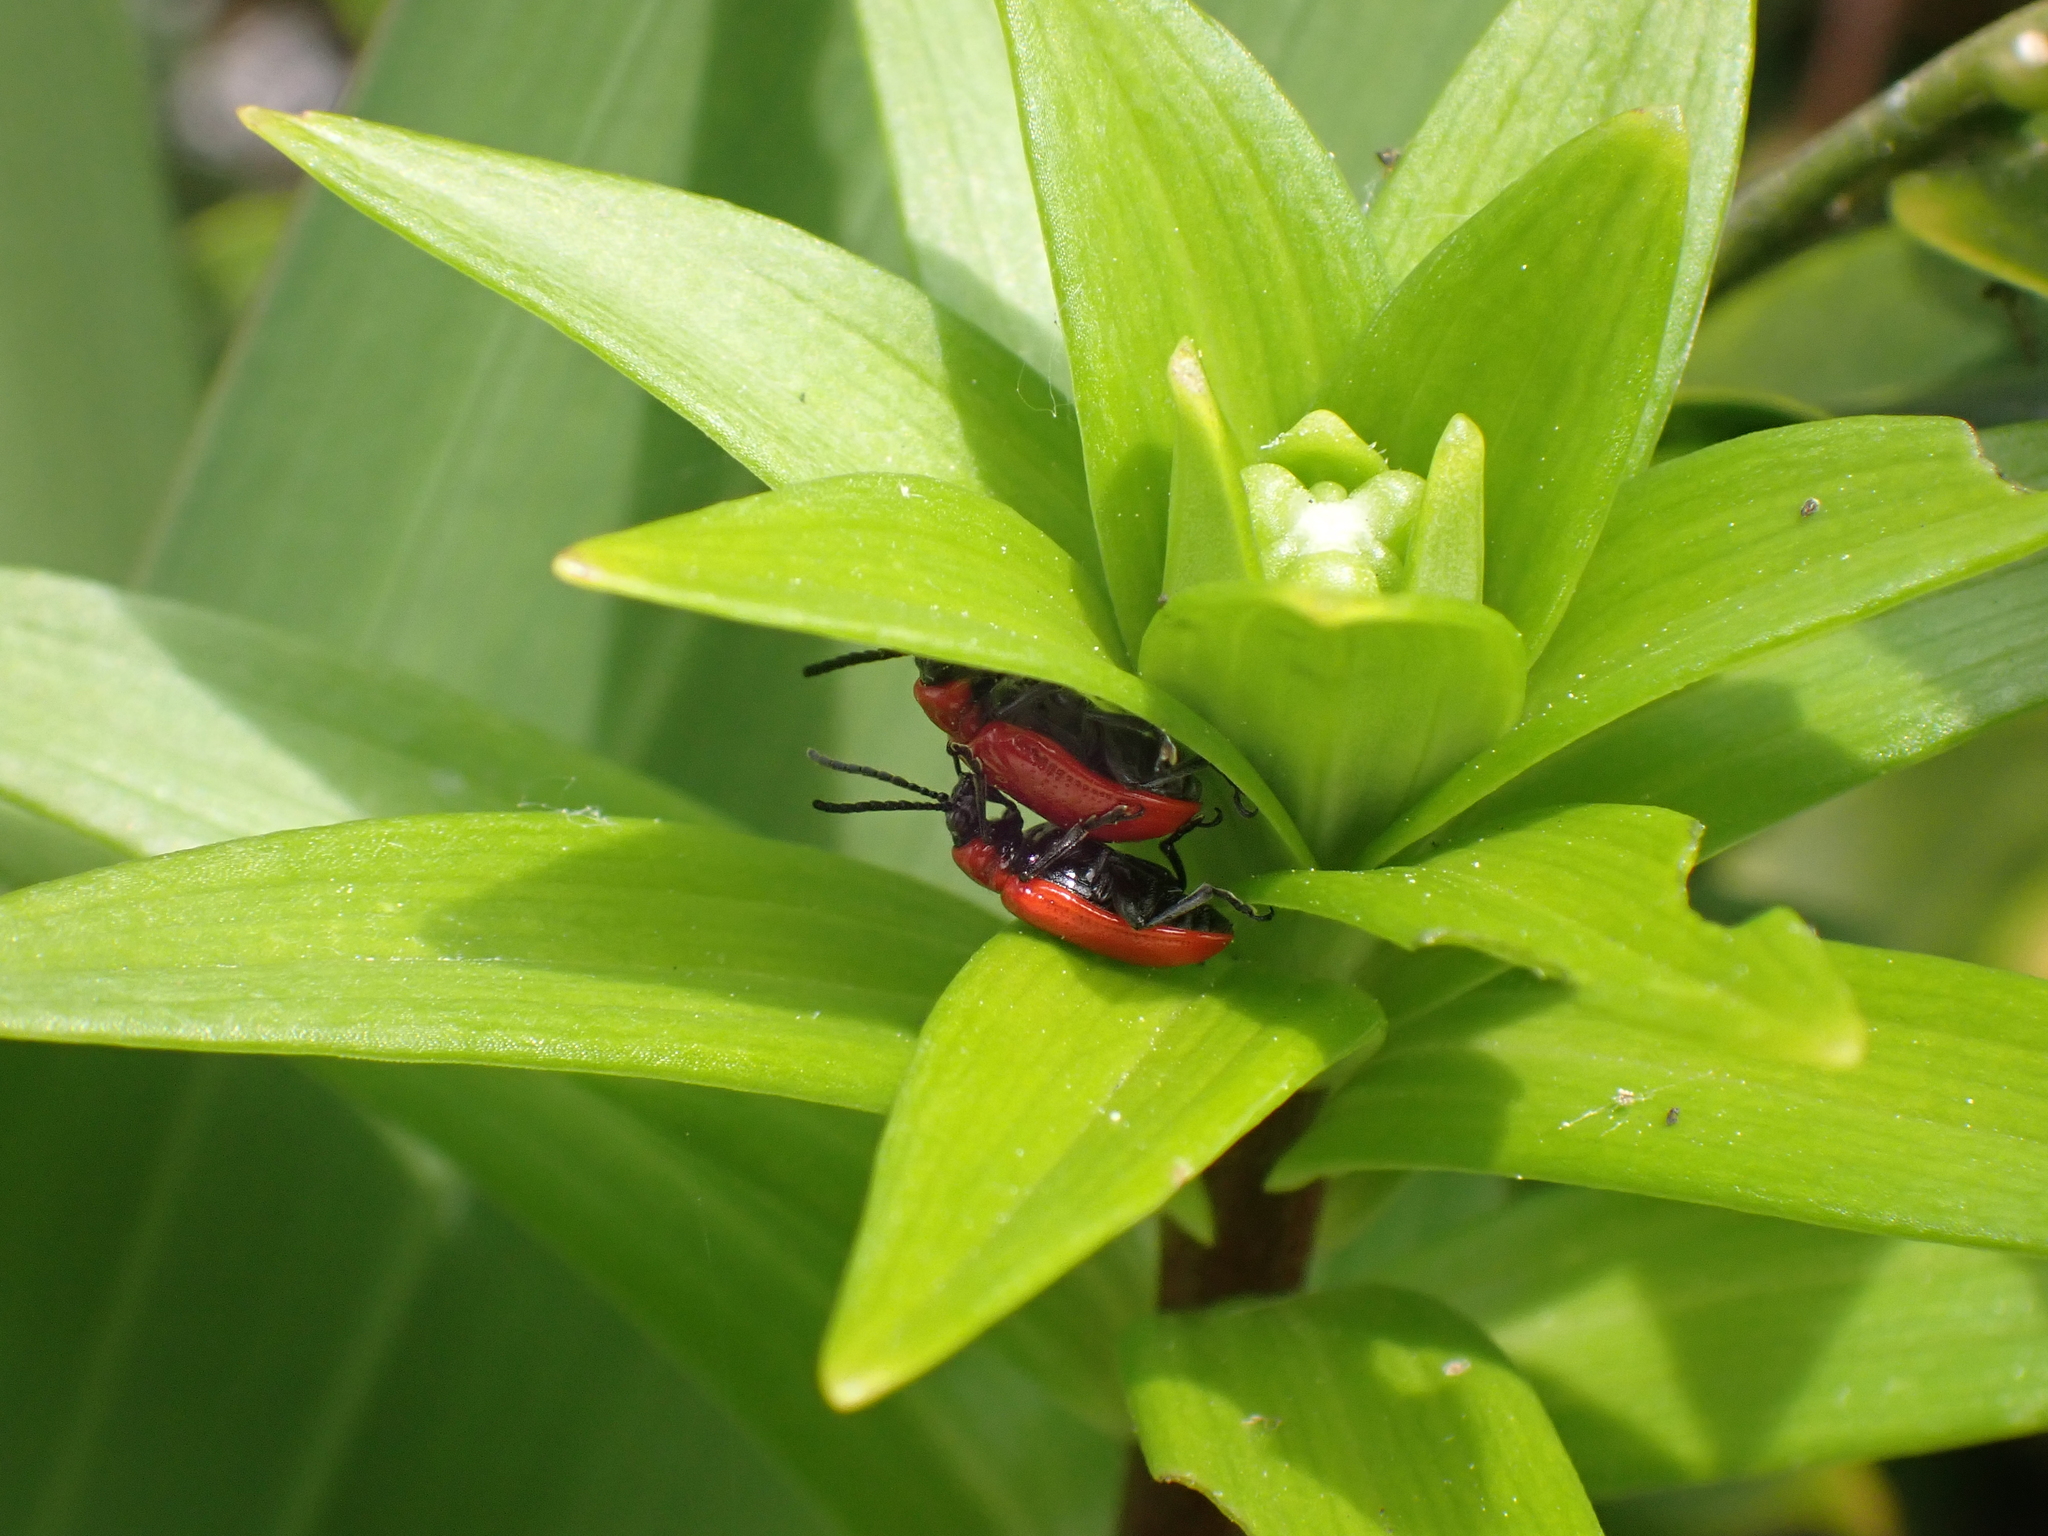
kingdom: Animalia
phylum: Arthropoda
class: Insecta
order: Coleoptera
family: Chrysomelidae
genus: Lilioceris
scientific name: Lilioceris lilii
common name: Lily beetle
